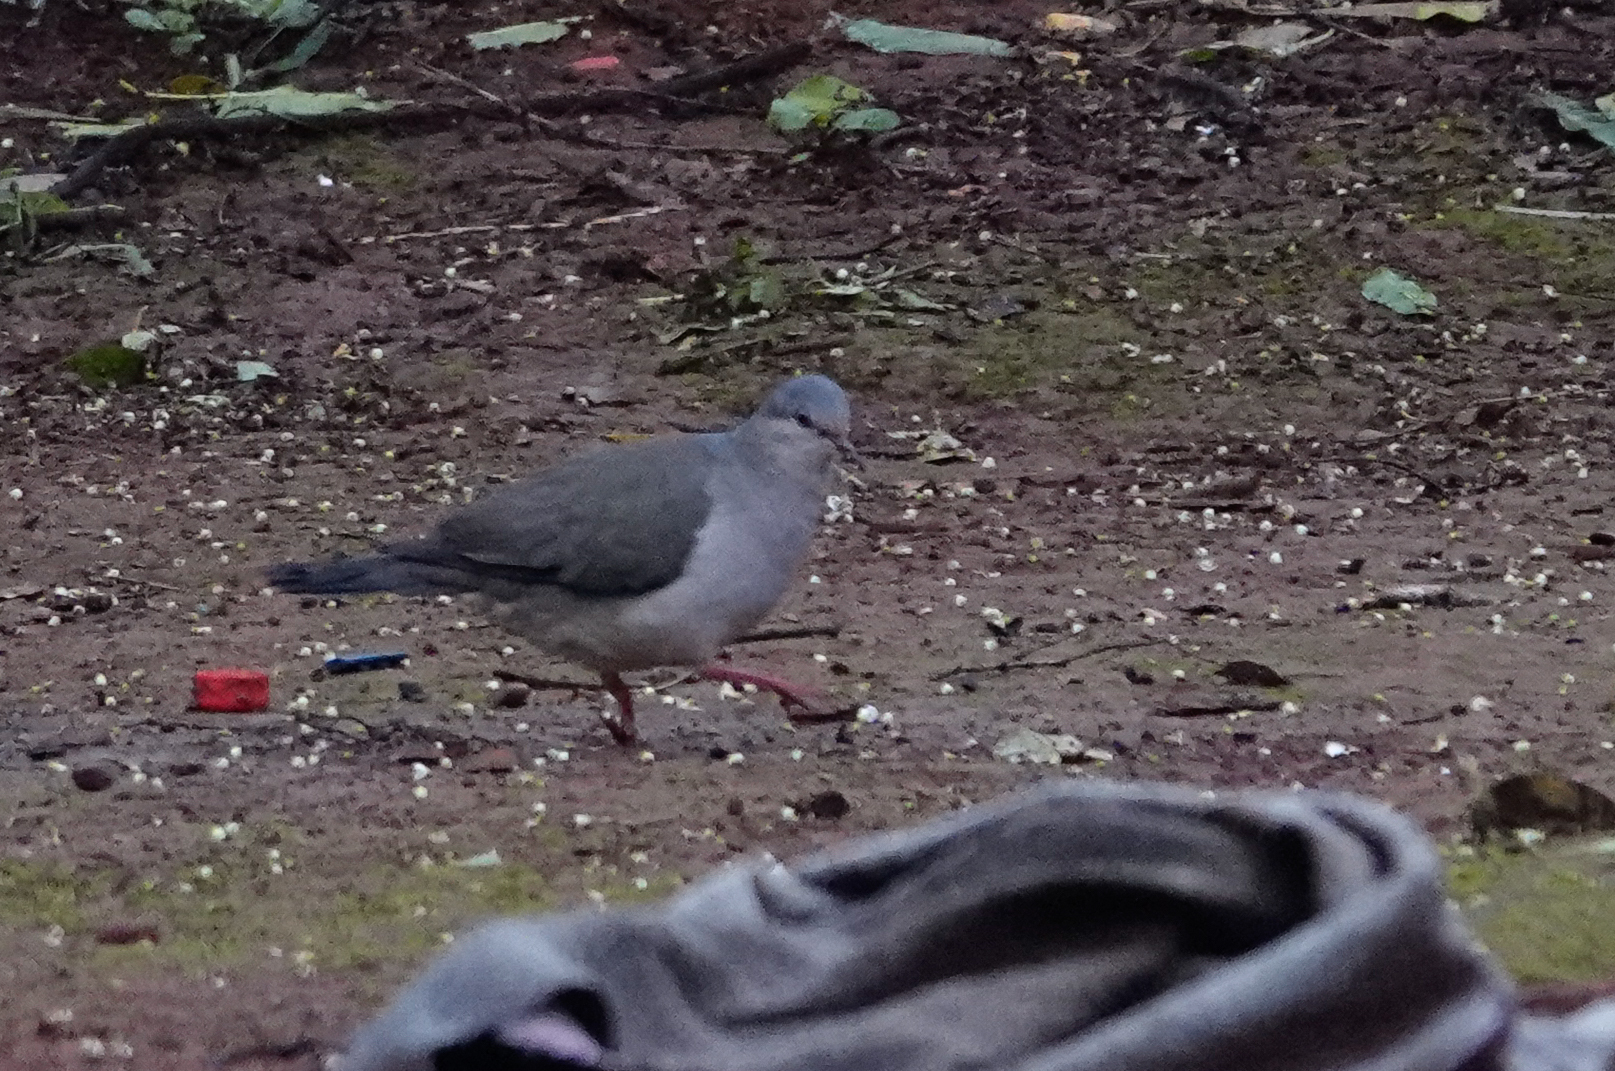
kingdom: Animalia
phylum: Chordata
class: Aves
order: Columbiformes
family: Columbidae
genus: Leptotila
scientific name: Leptotila verreauxi
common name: White-tipped dove
